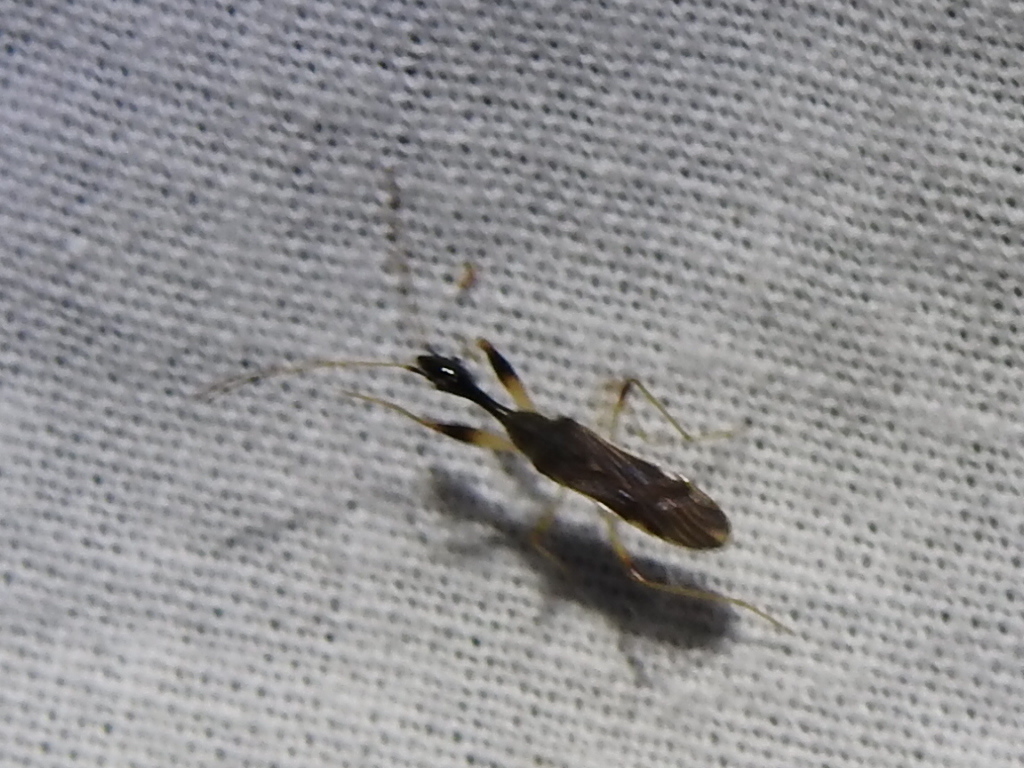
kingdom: Animalia
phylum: Arthropoda
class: Insecta
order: Hemiptera
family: Rhyparochromidae
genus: Myodocha
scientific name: Myodocha serripes
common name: Long-necked seed bug
